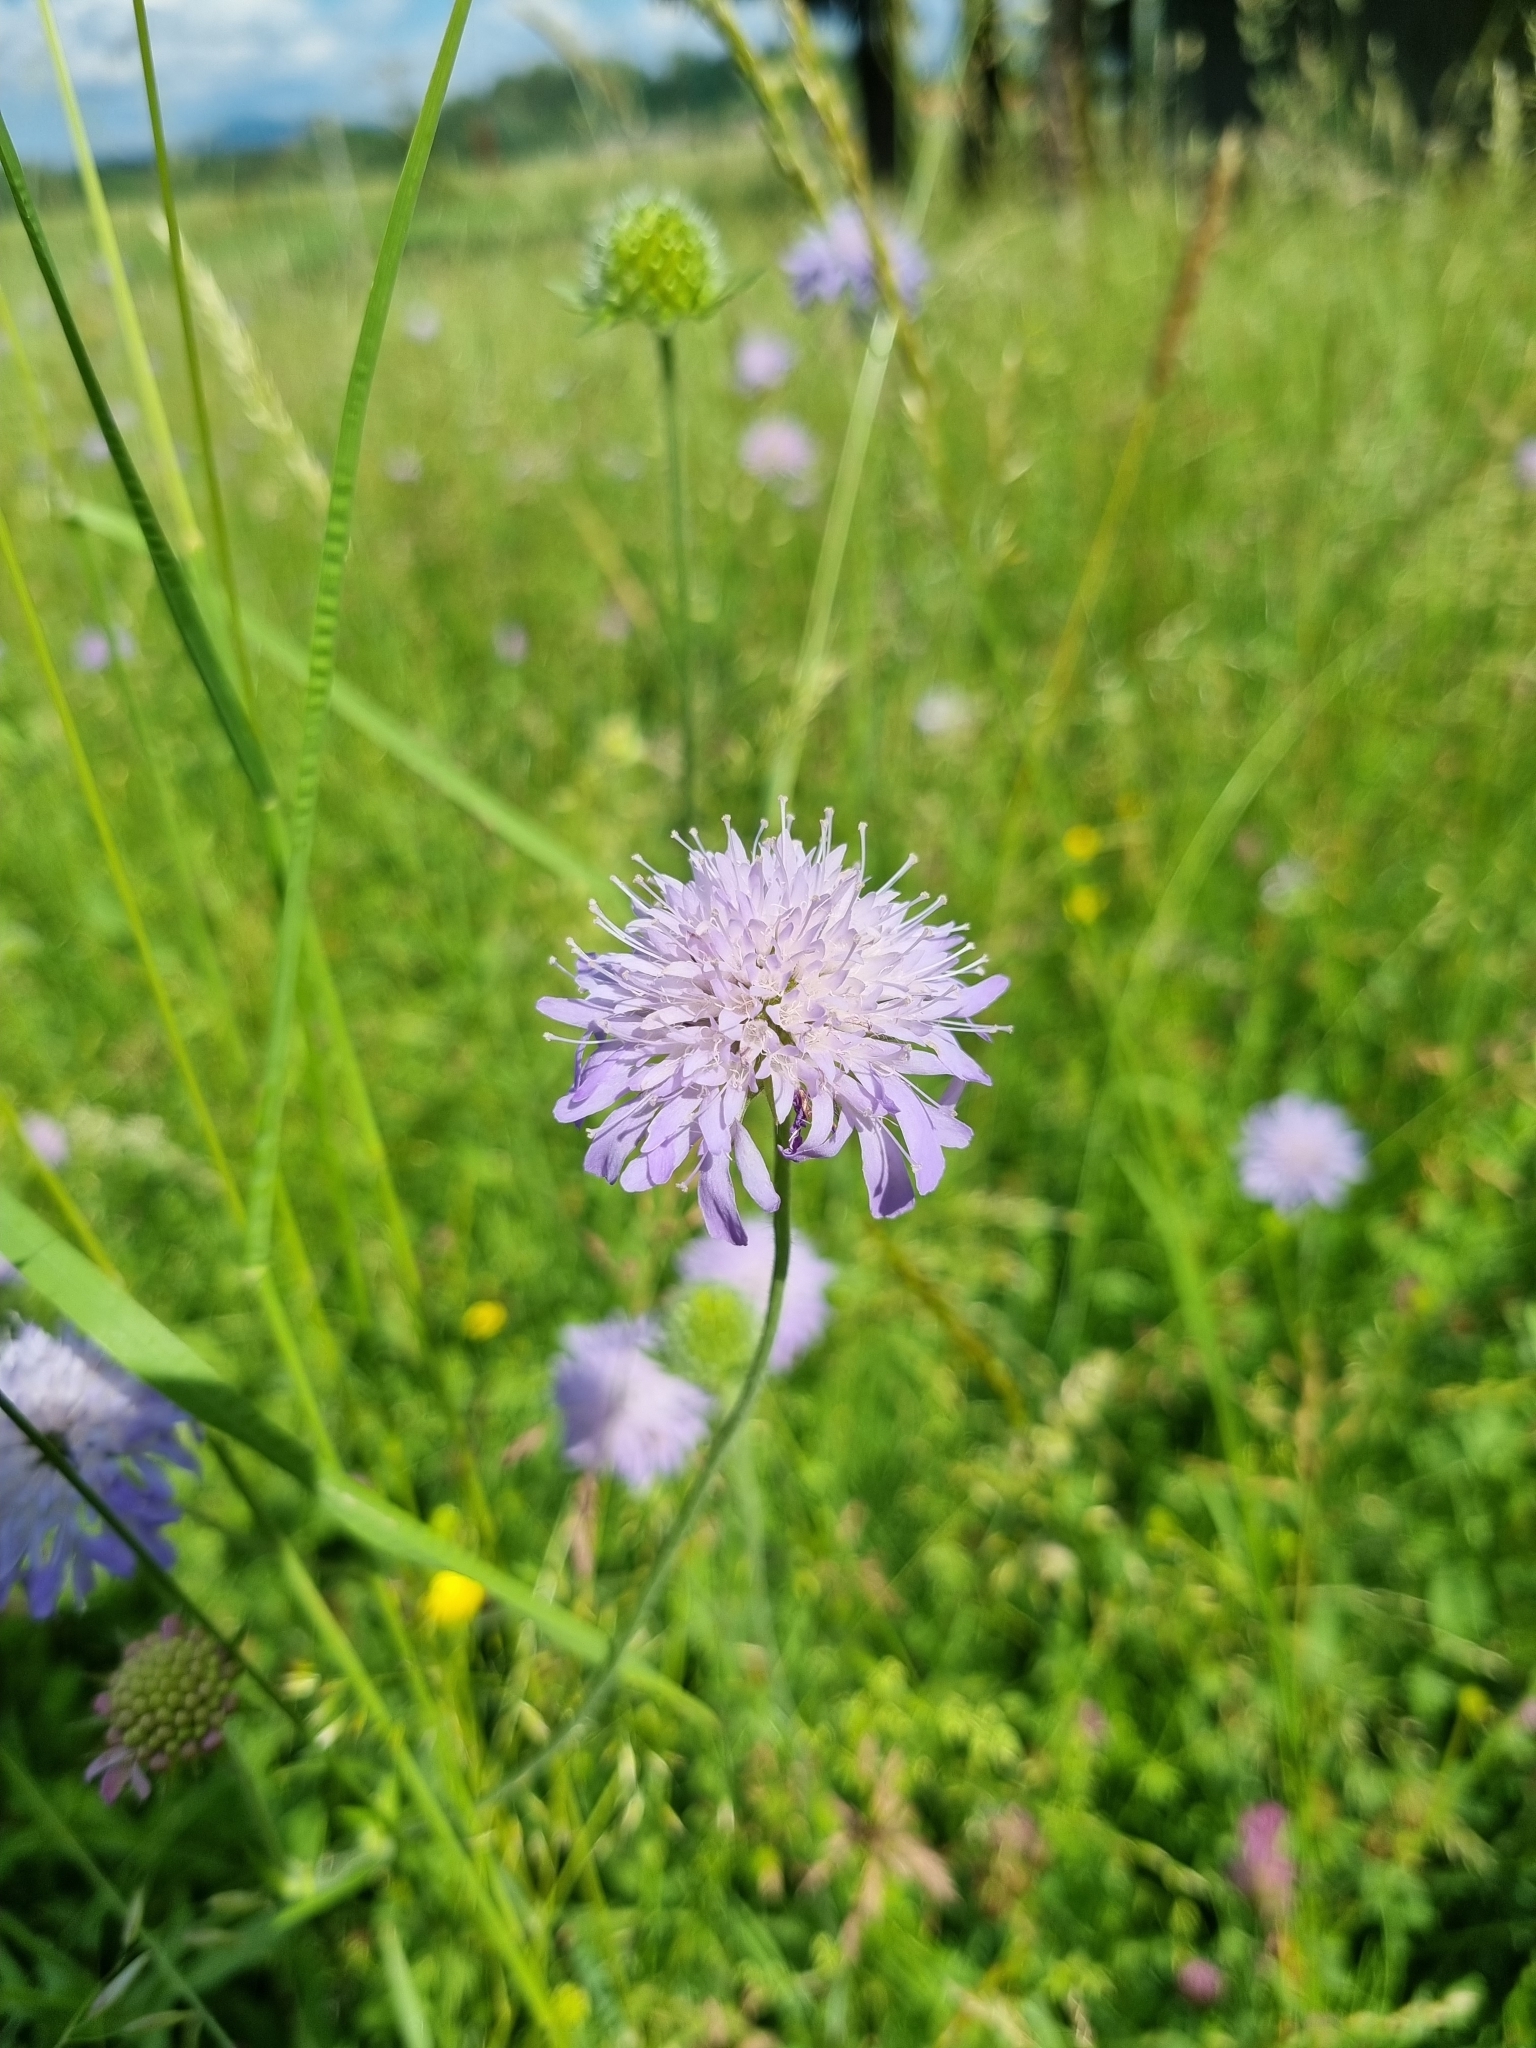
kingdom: Plantae
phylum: Tracheophyta
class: Magnoliopsida
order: Dipsacales
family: Caprifoliaceae
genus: Knautia
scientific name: Knautia arvensis
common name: Field scabiosa
